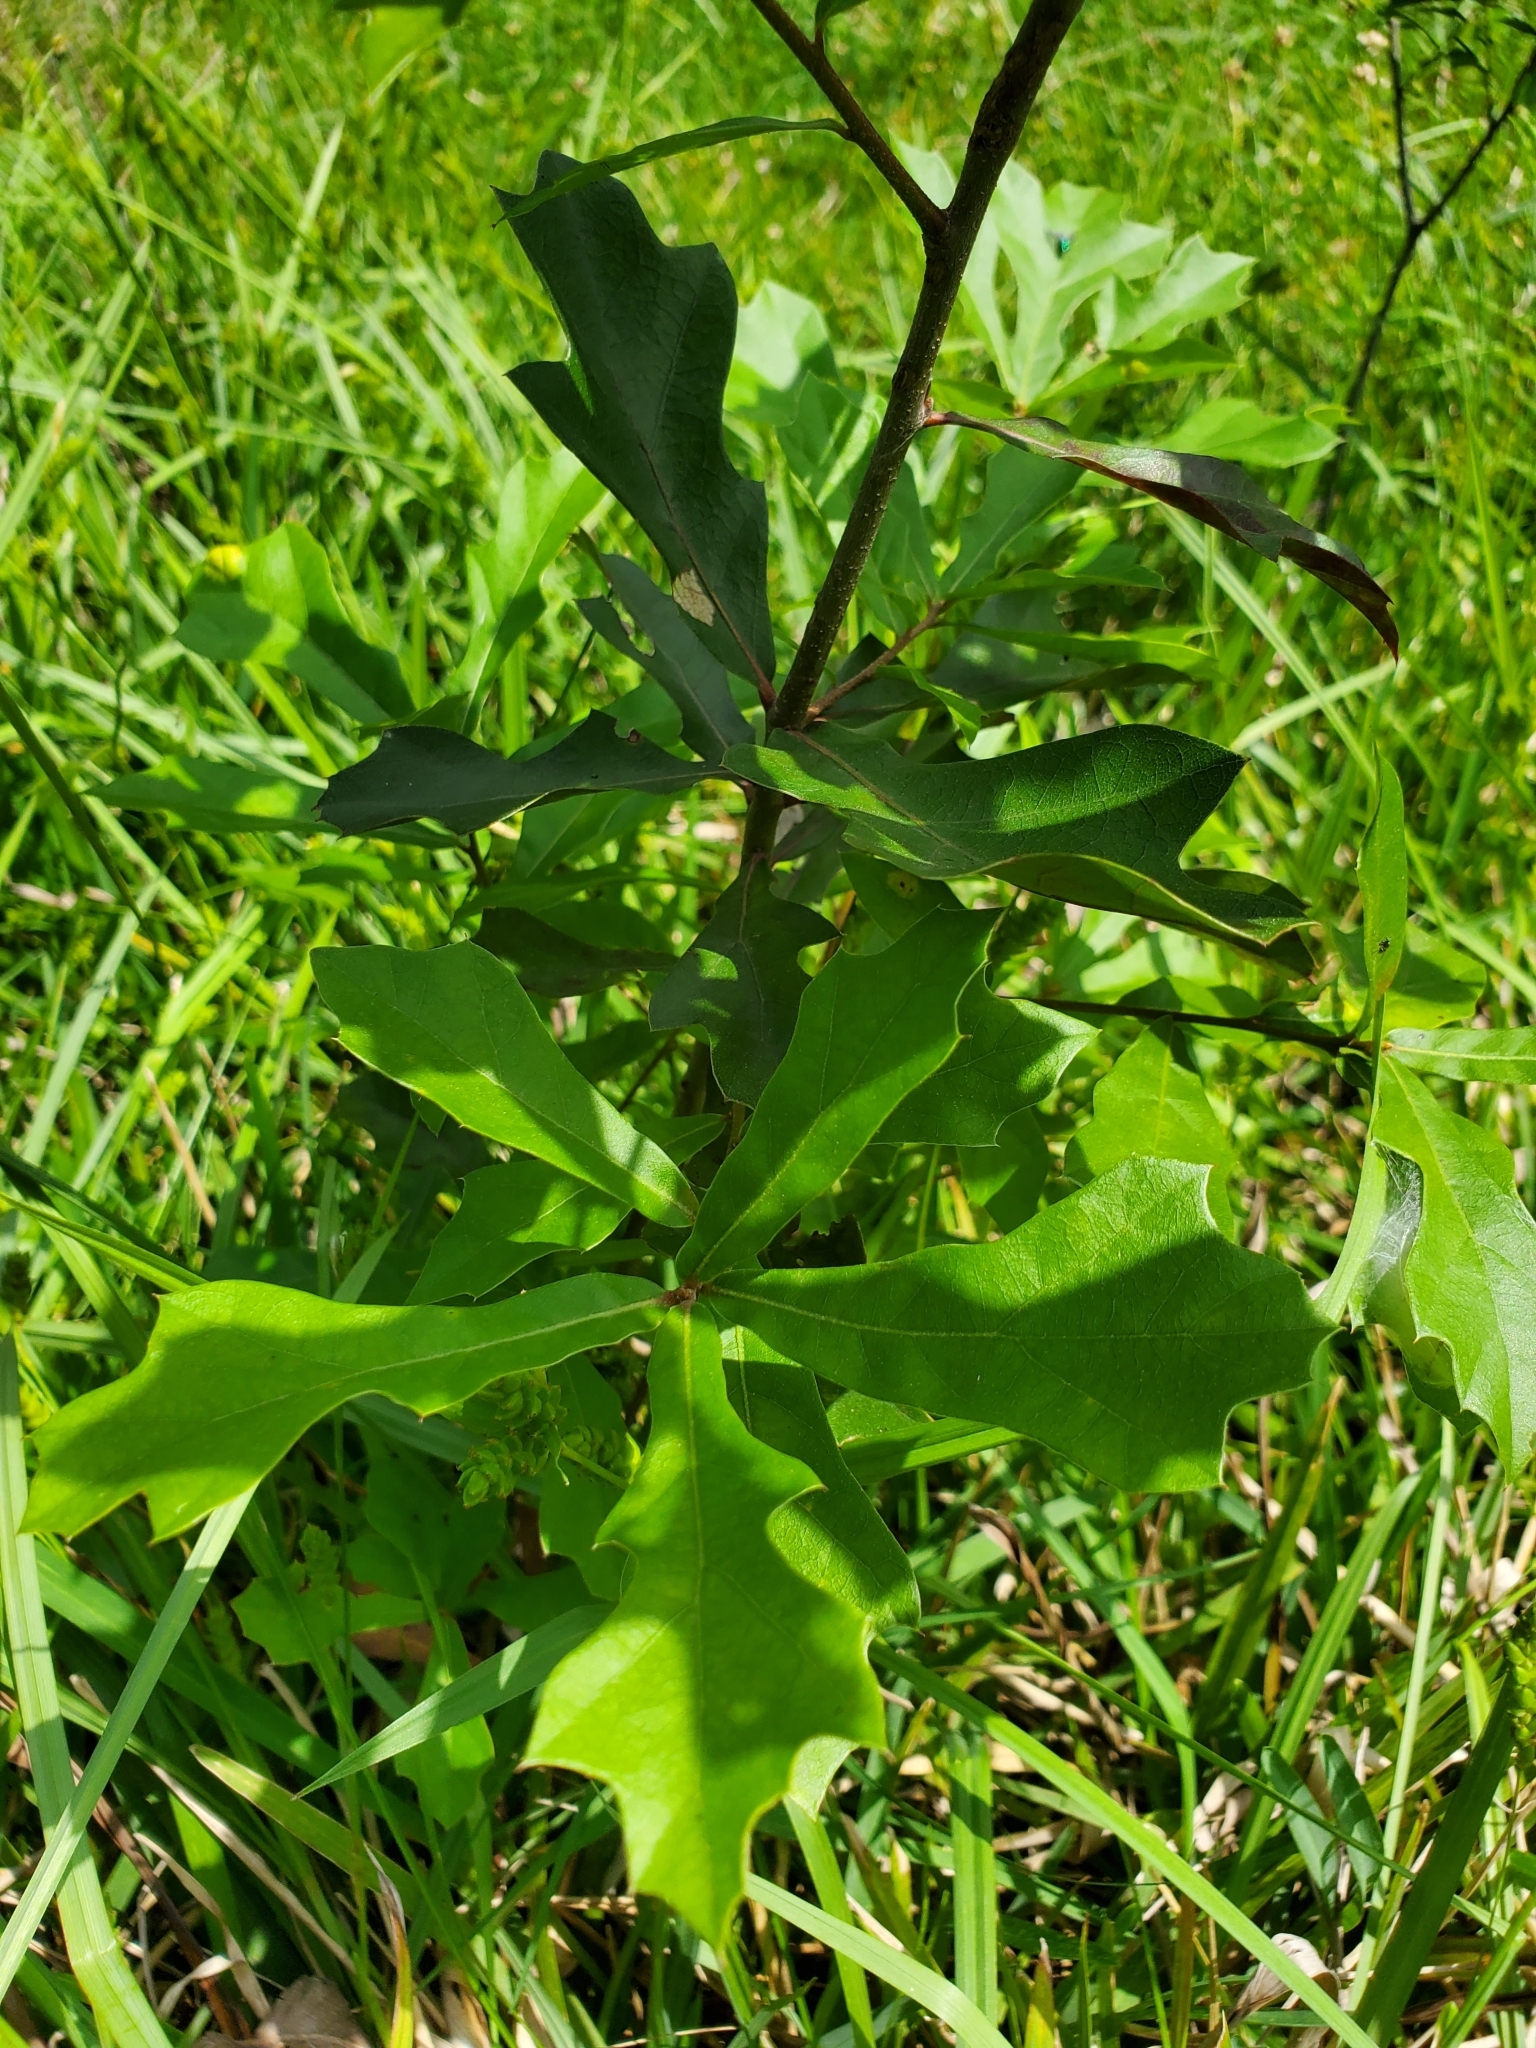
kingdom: Plantae
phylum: Tracheophyta
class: Magnoliopsida
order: Fagales
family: Fagaceae
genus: Quercus
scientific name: Quercus nigra
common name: Water oak
